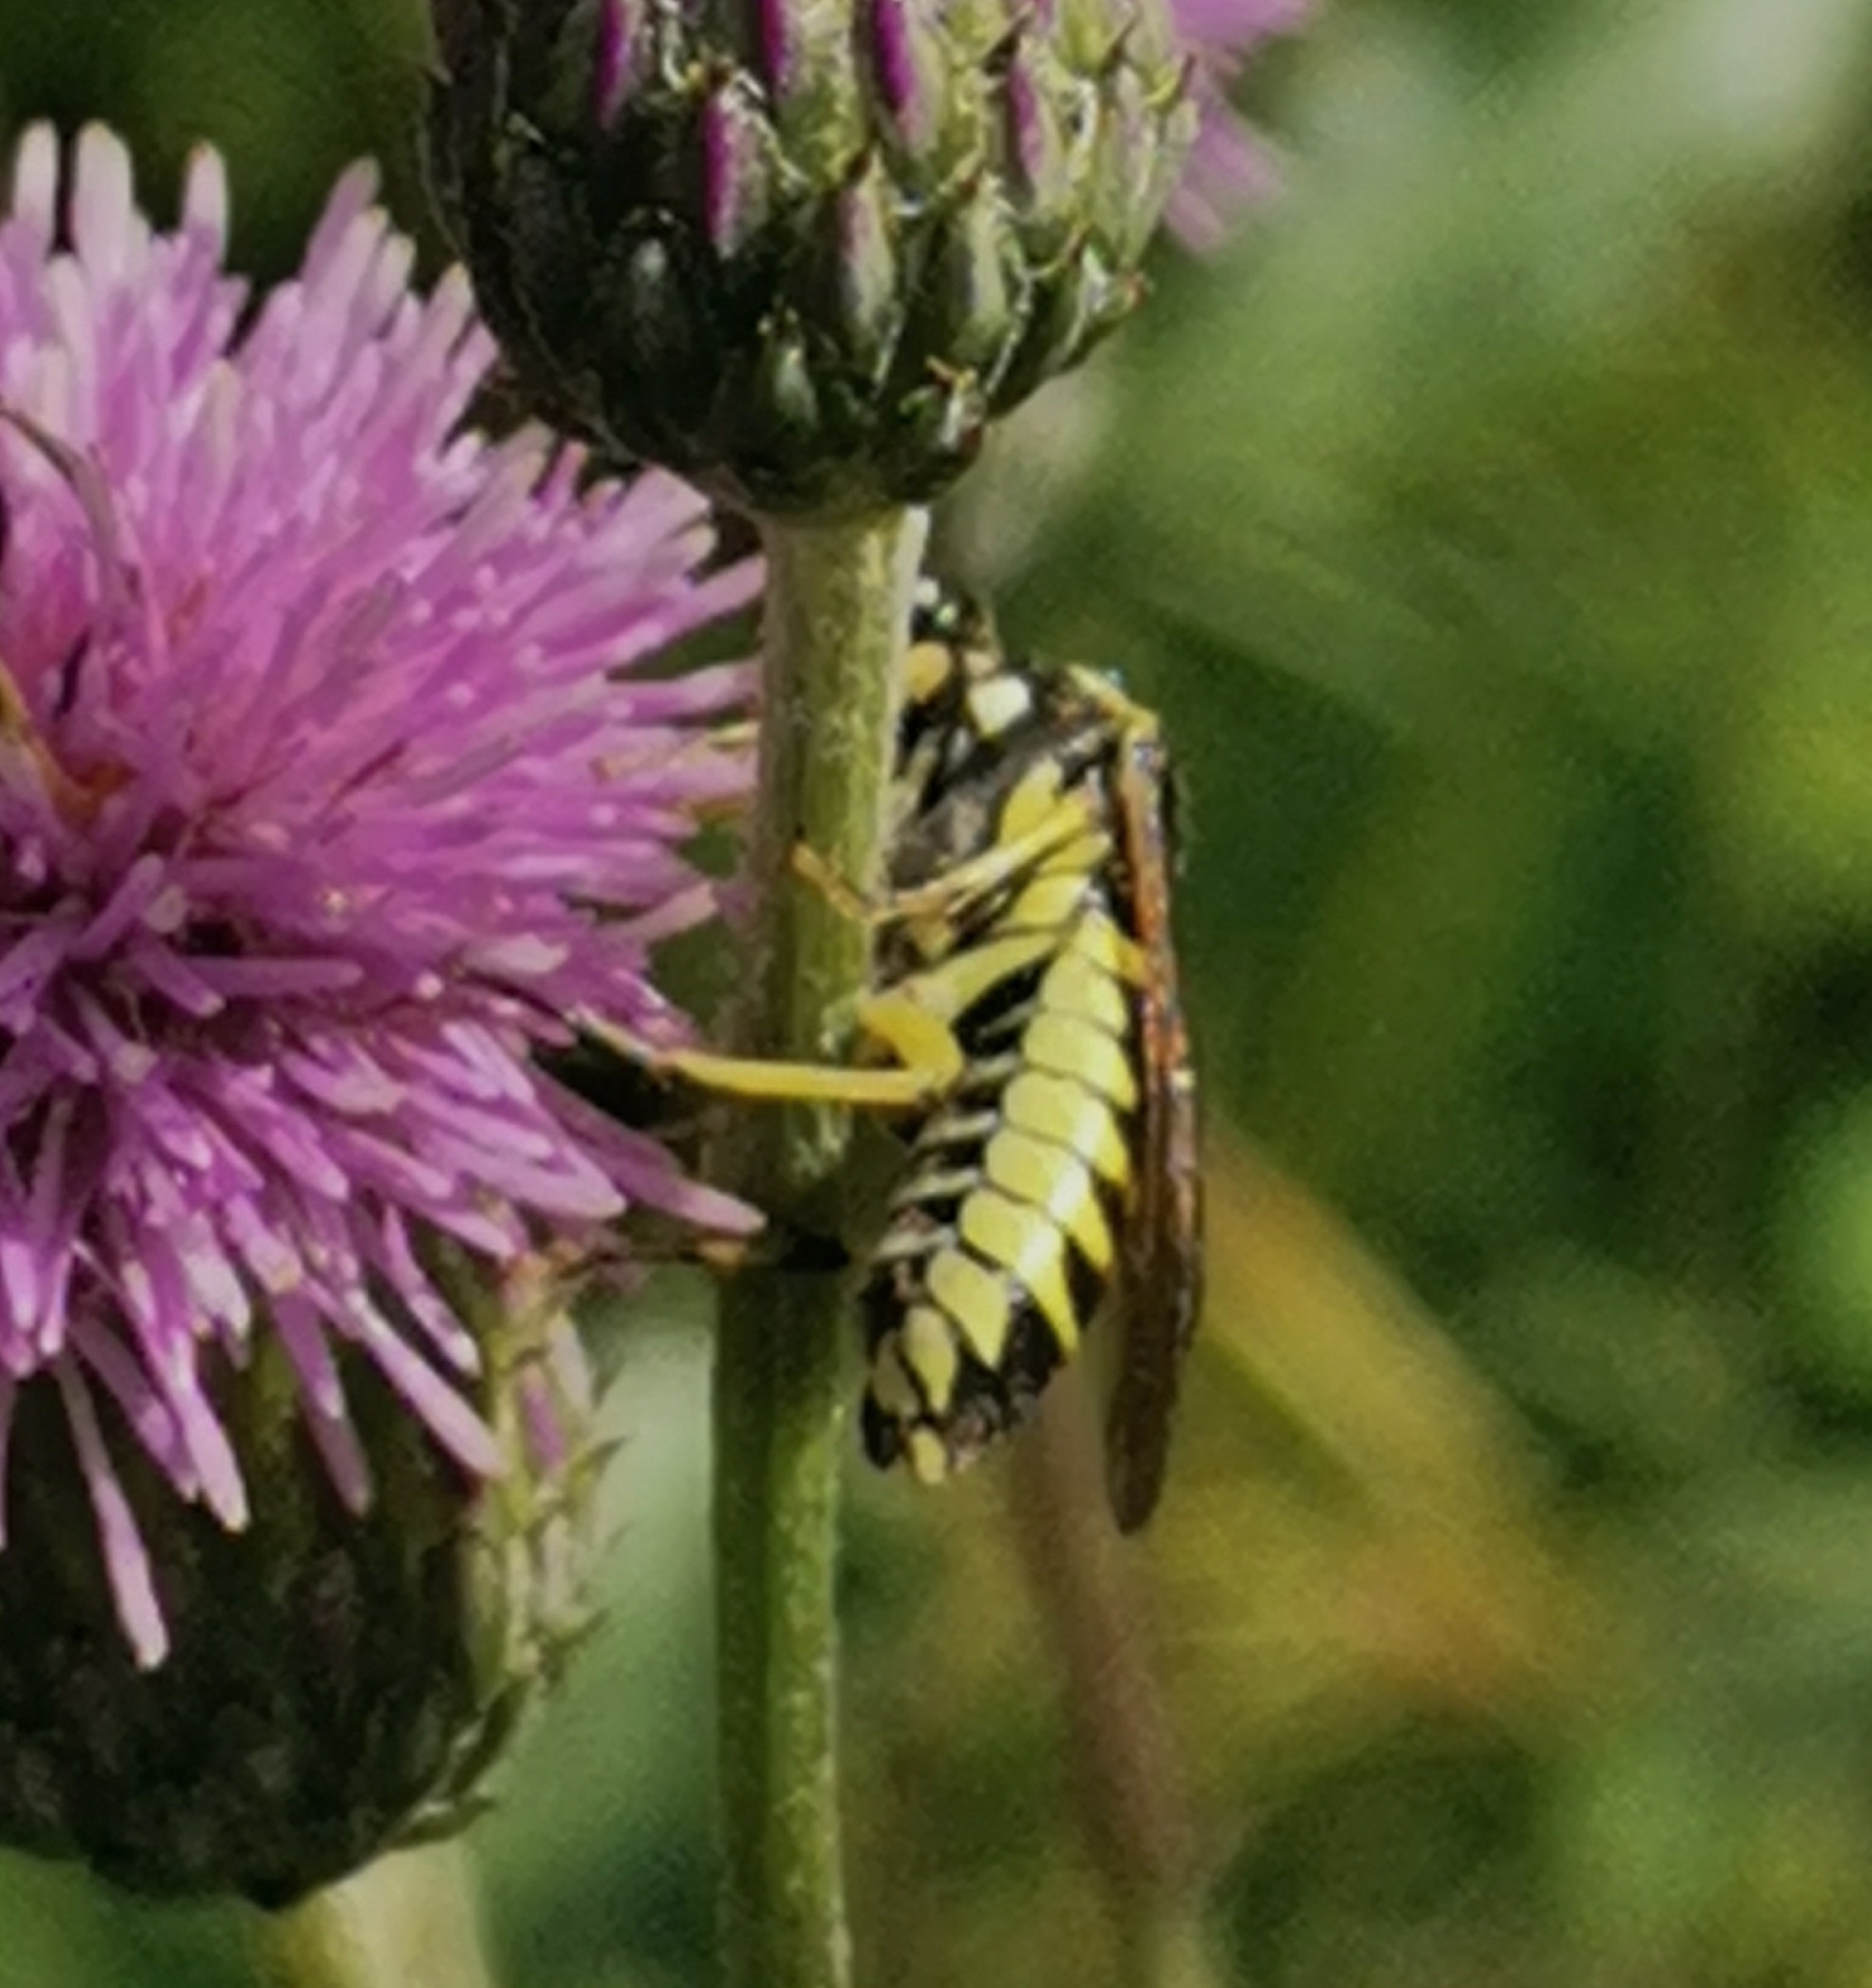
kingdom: Animalia
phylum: Arthropoda
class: Insecta
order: Hymenoptera
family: Tenthredinidae
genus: Tenthredo
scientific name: Tenthredo notha
